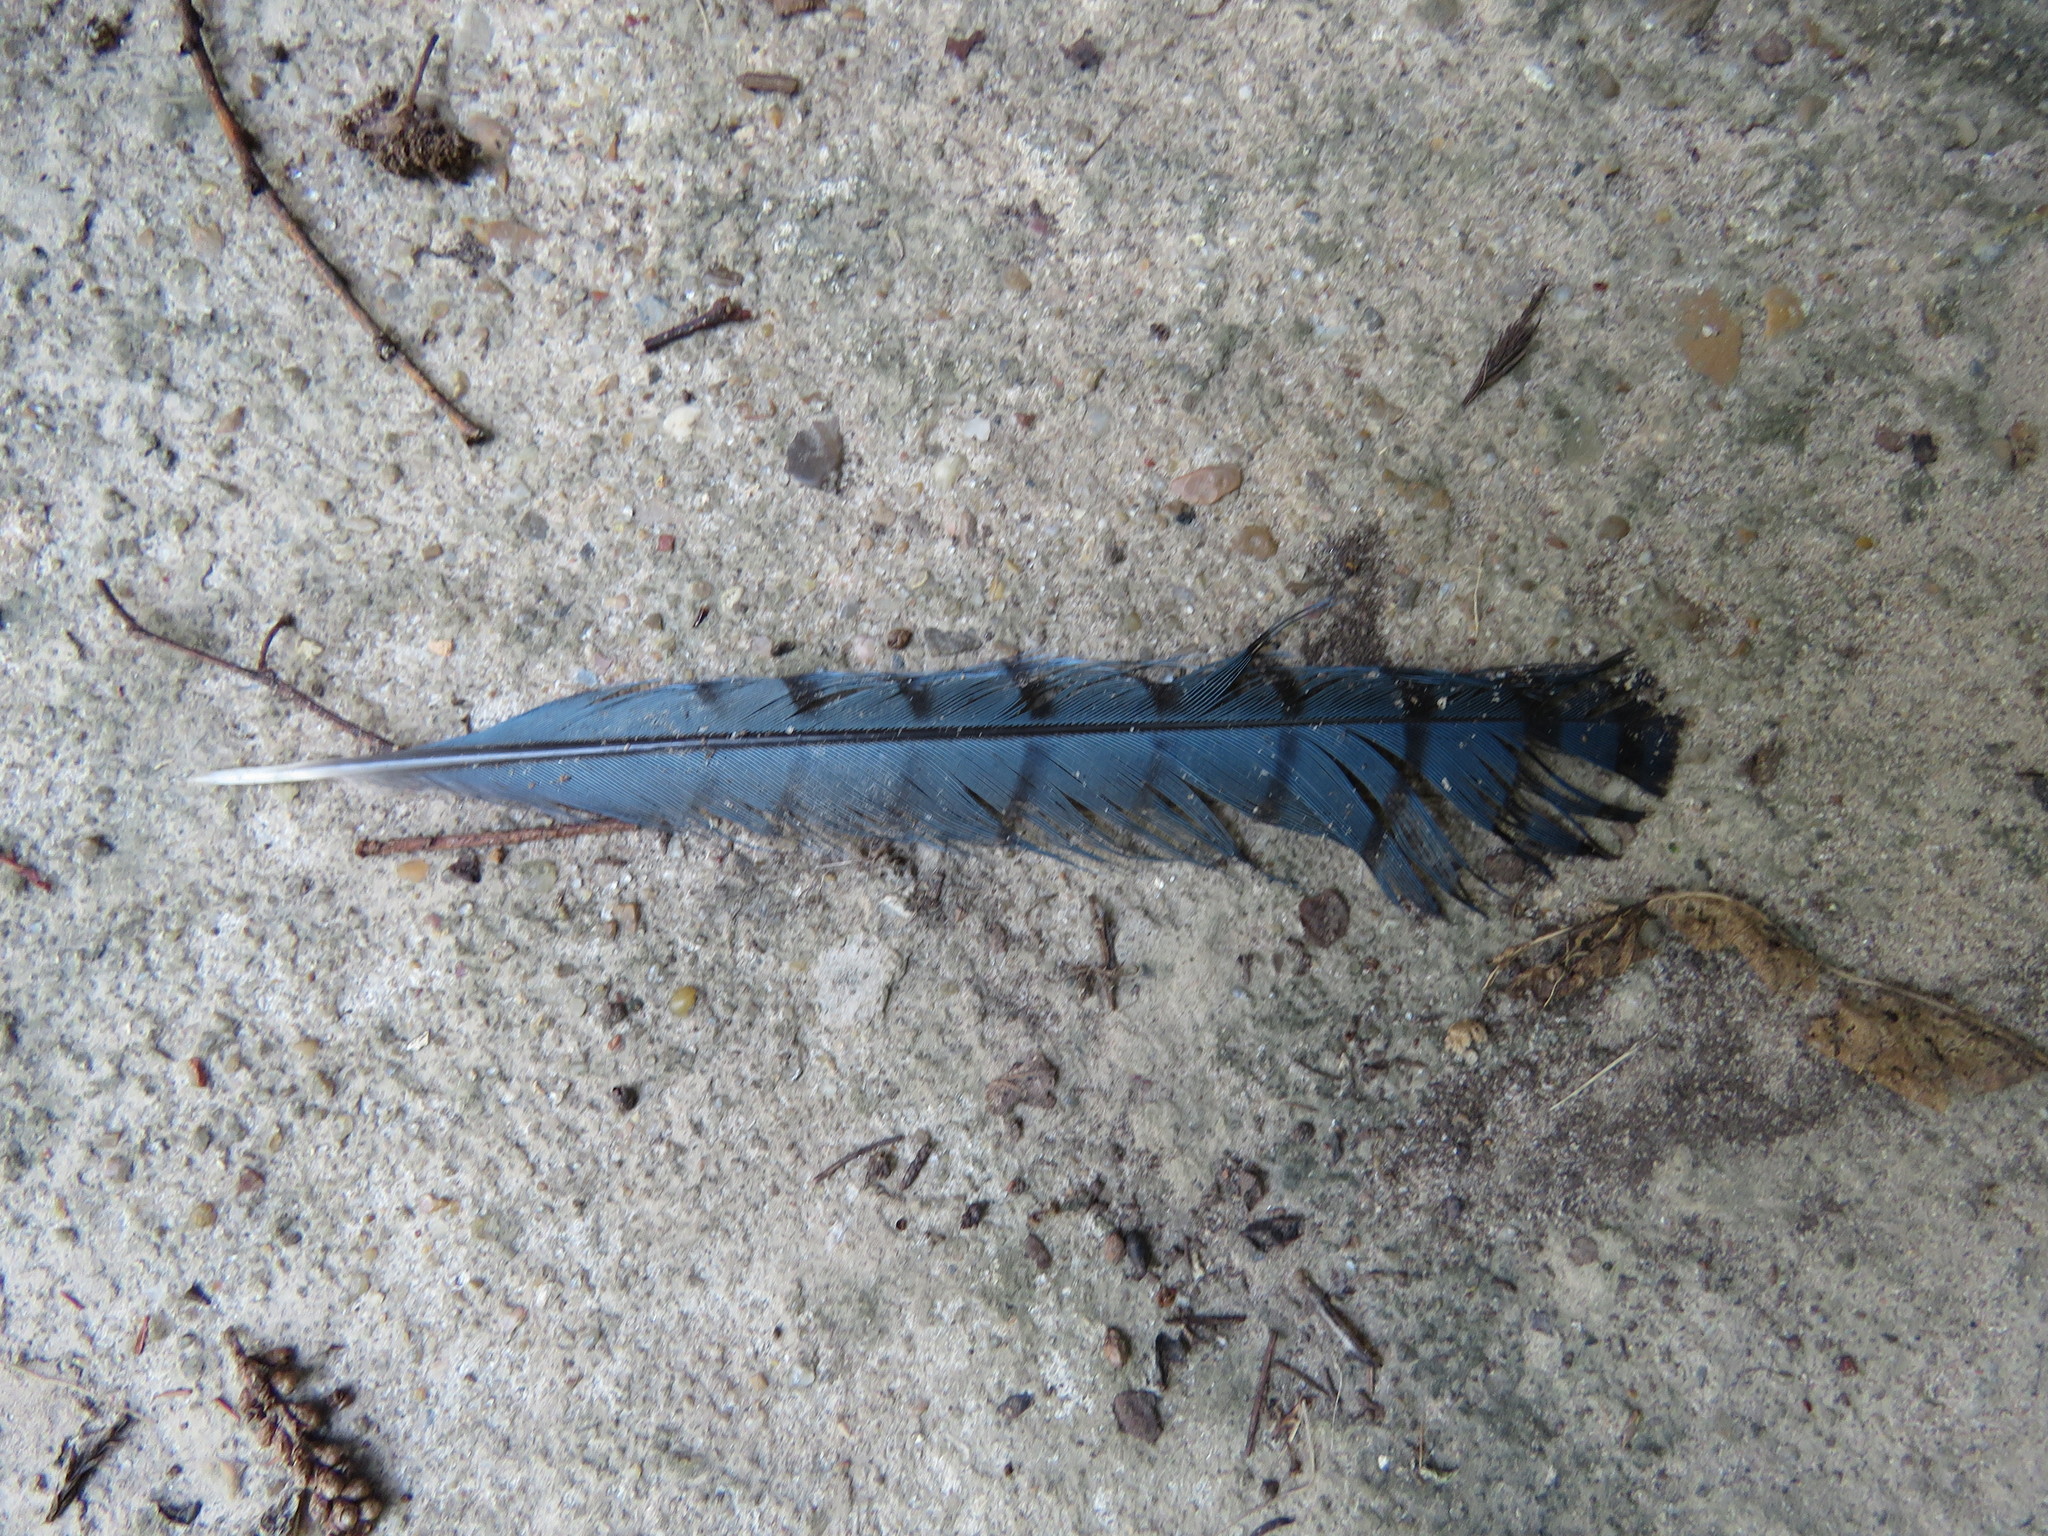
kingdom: Animalia
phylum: Chordata
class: Aves
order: Passeriformes
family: Corvidae
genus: Cyanocitta
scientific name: Cyanocitta cristata
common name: Blue jay
